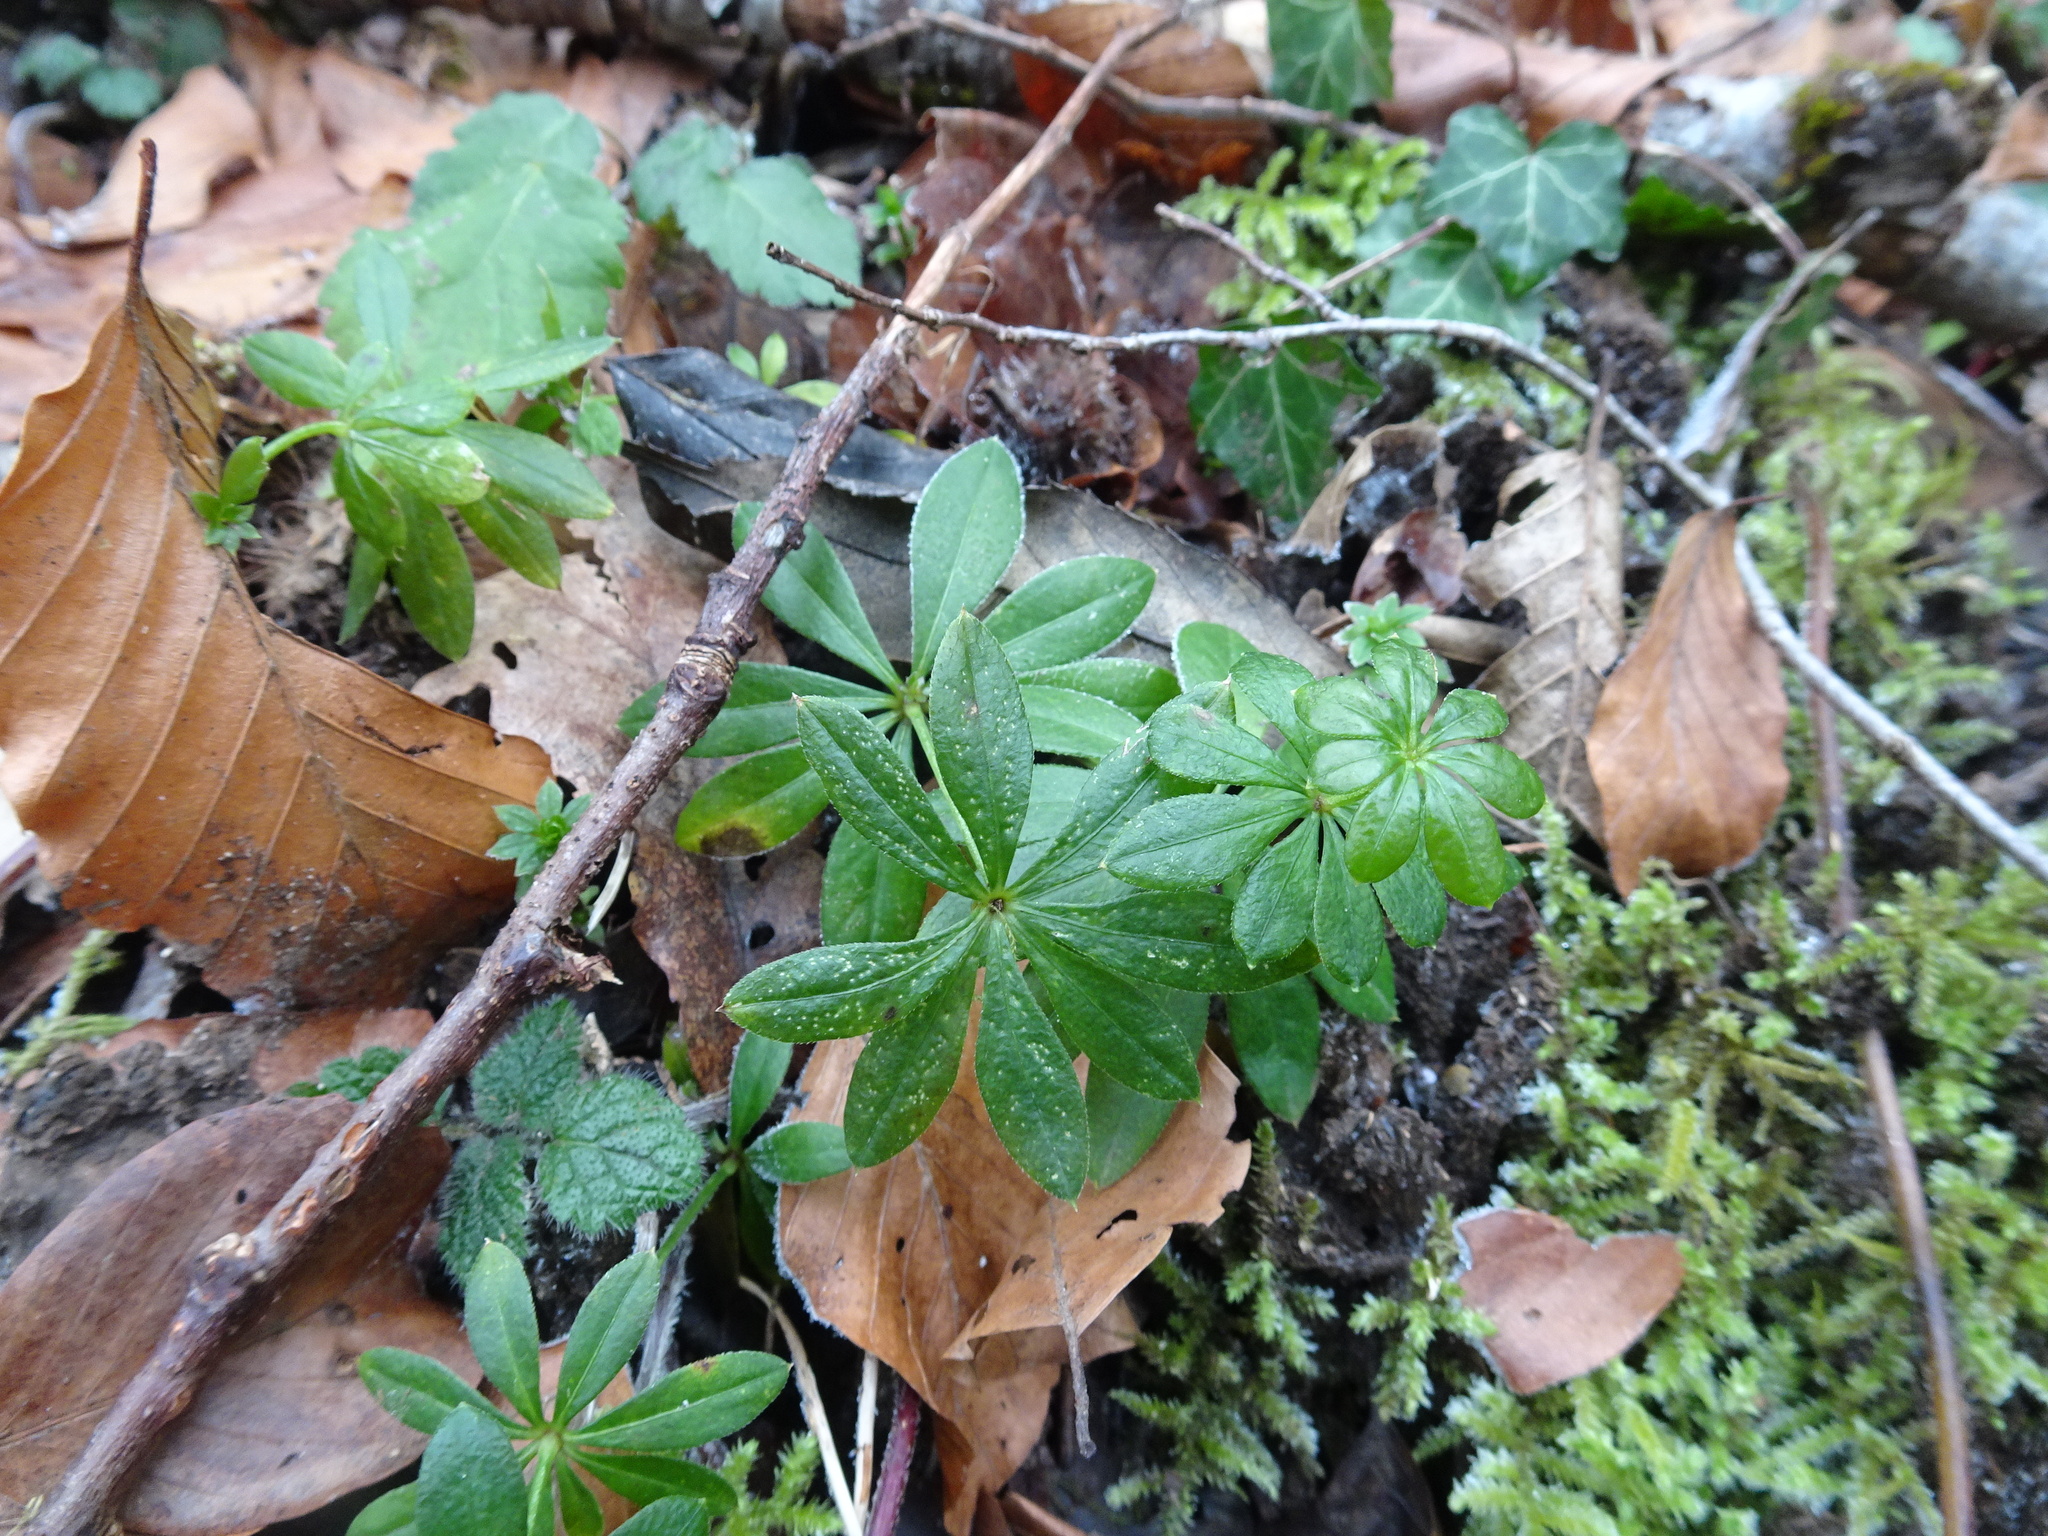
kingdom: Plantae
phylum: Tracheophyta
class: Magnoliopsida
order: Gentianales
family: Rubiaceae
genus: Galium
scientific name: Galium odoratum
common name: Sweet woodruff
